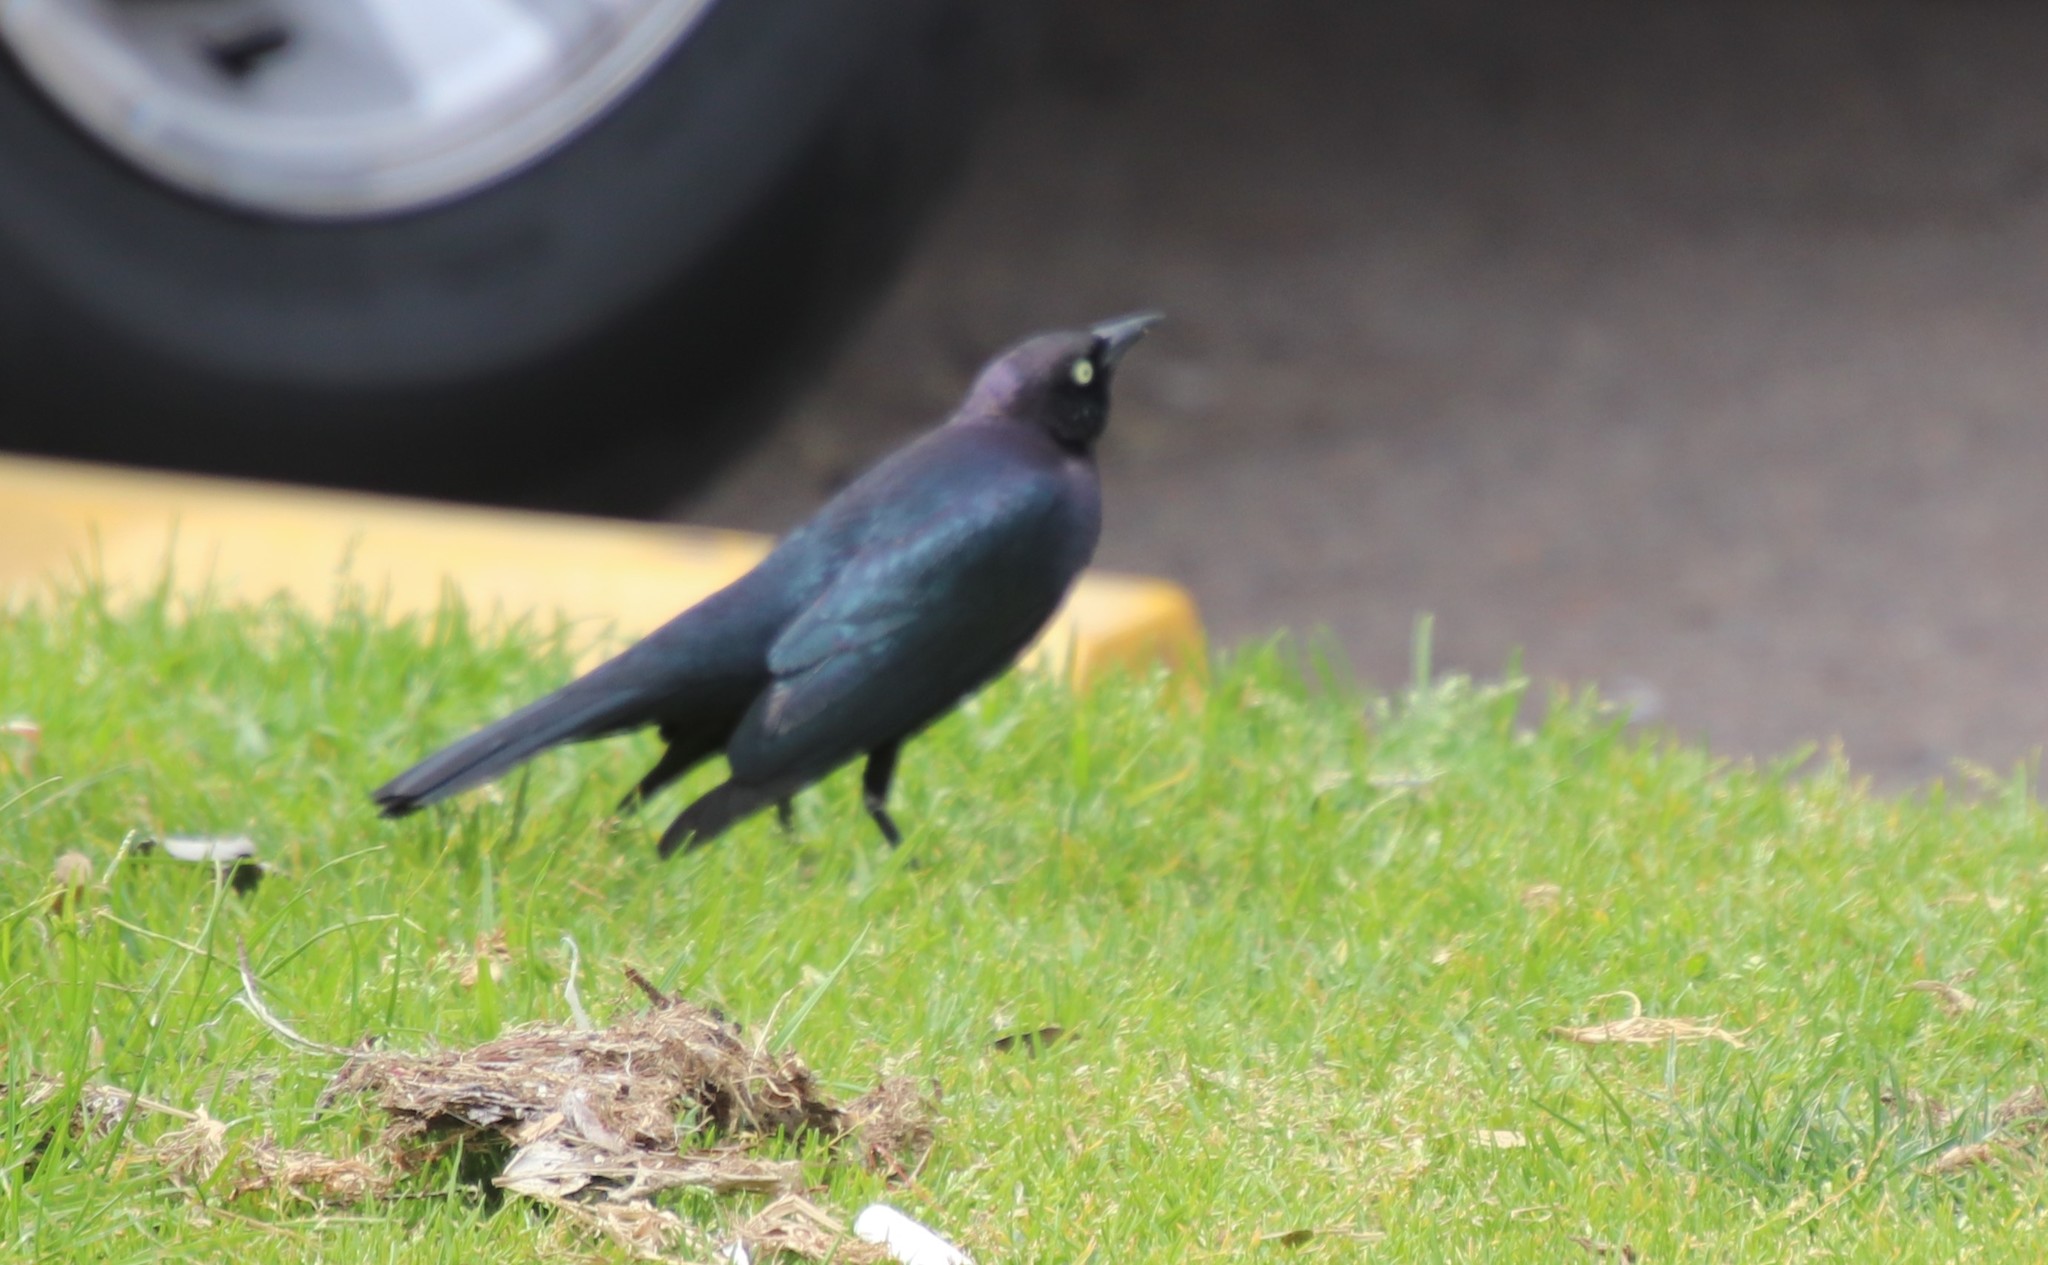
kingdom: Animalia
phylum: Chordata
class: Aves
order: Passeriformes
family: Icteridae
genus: Euphagus
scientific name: Euphagus cyanocephalus
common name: Brewer's blackbird
